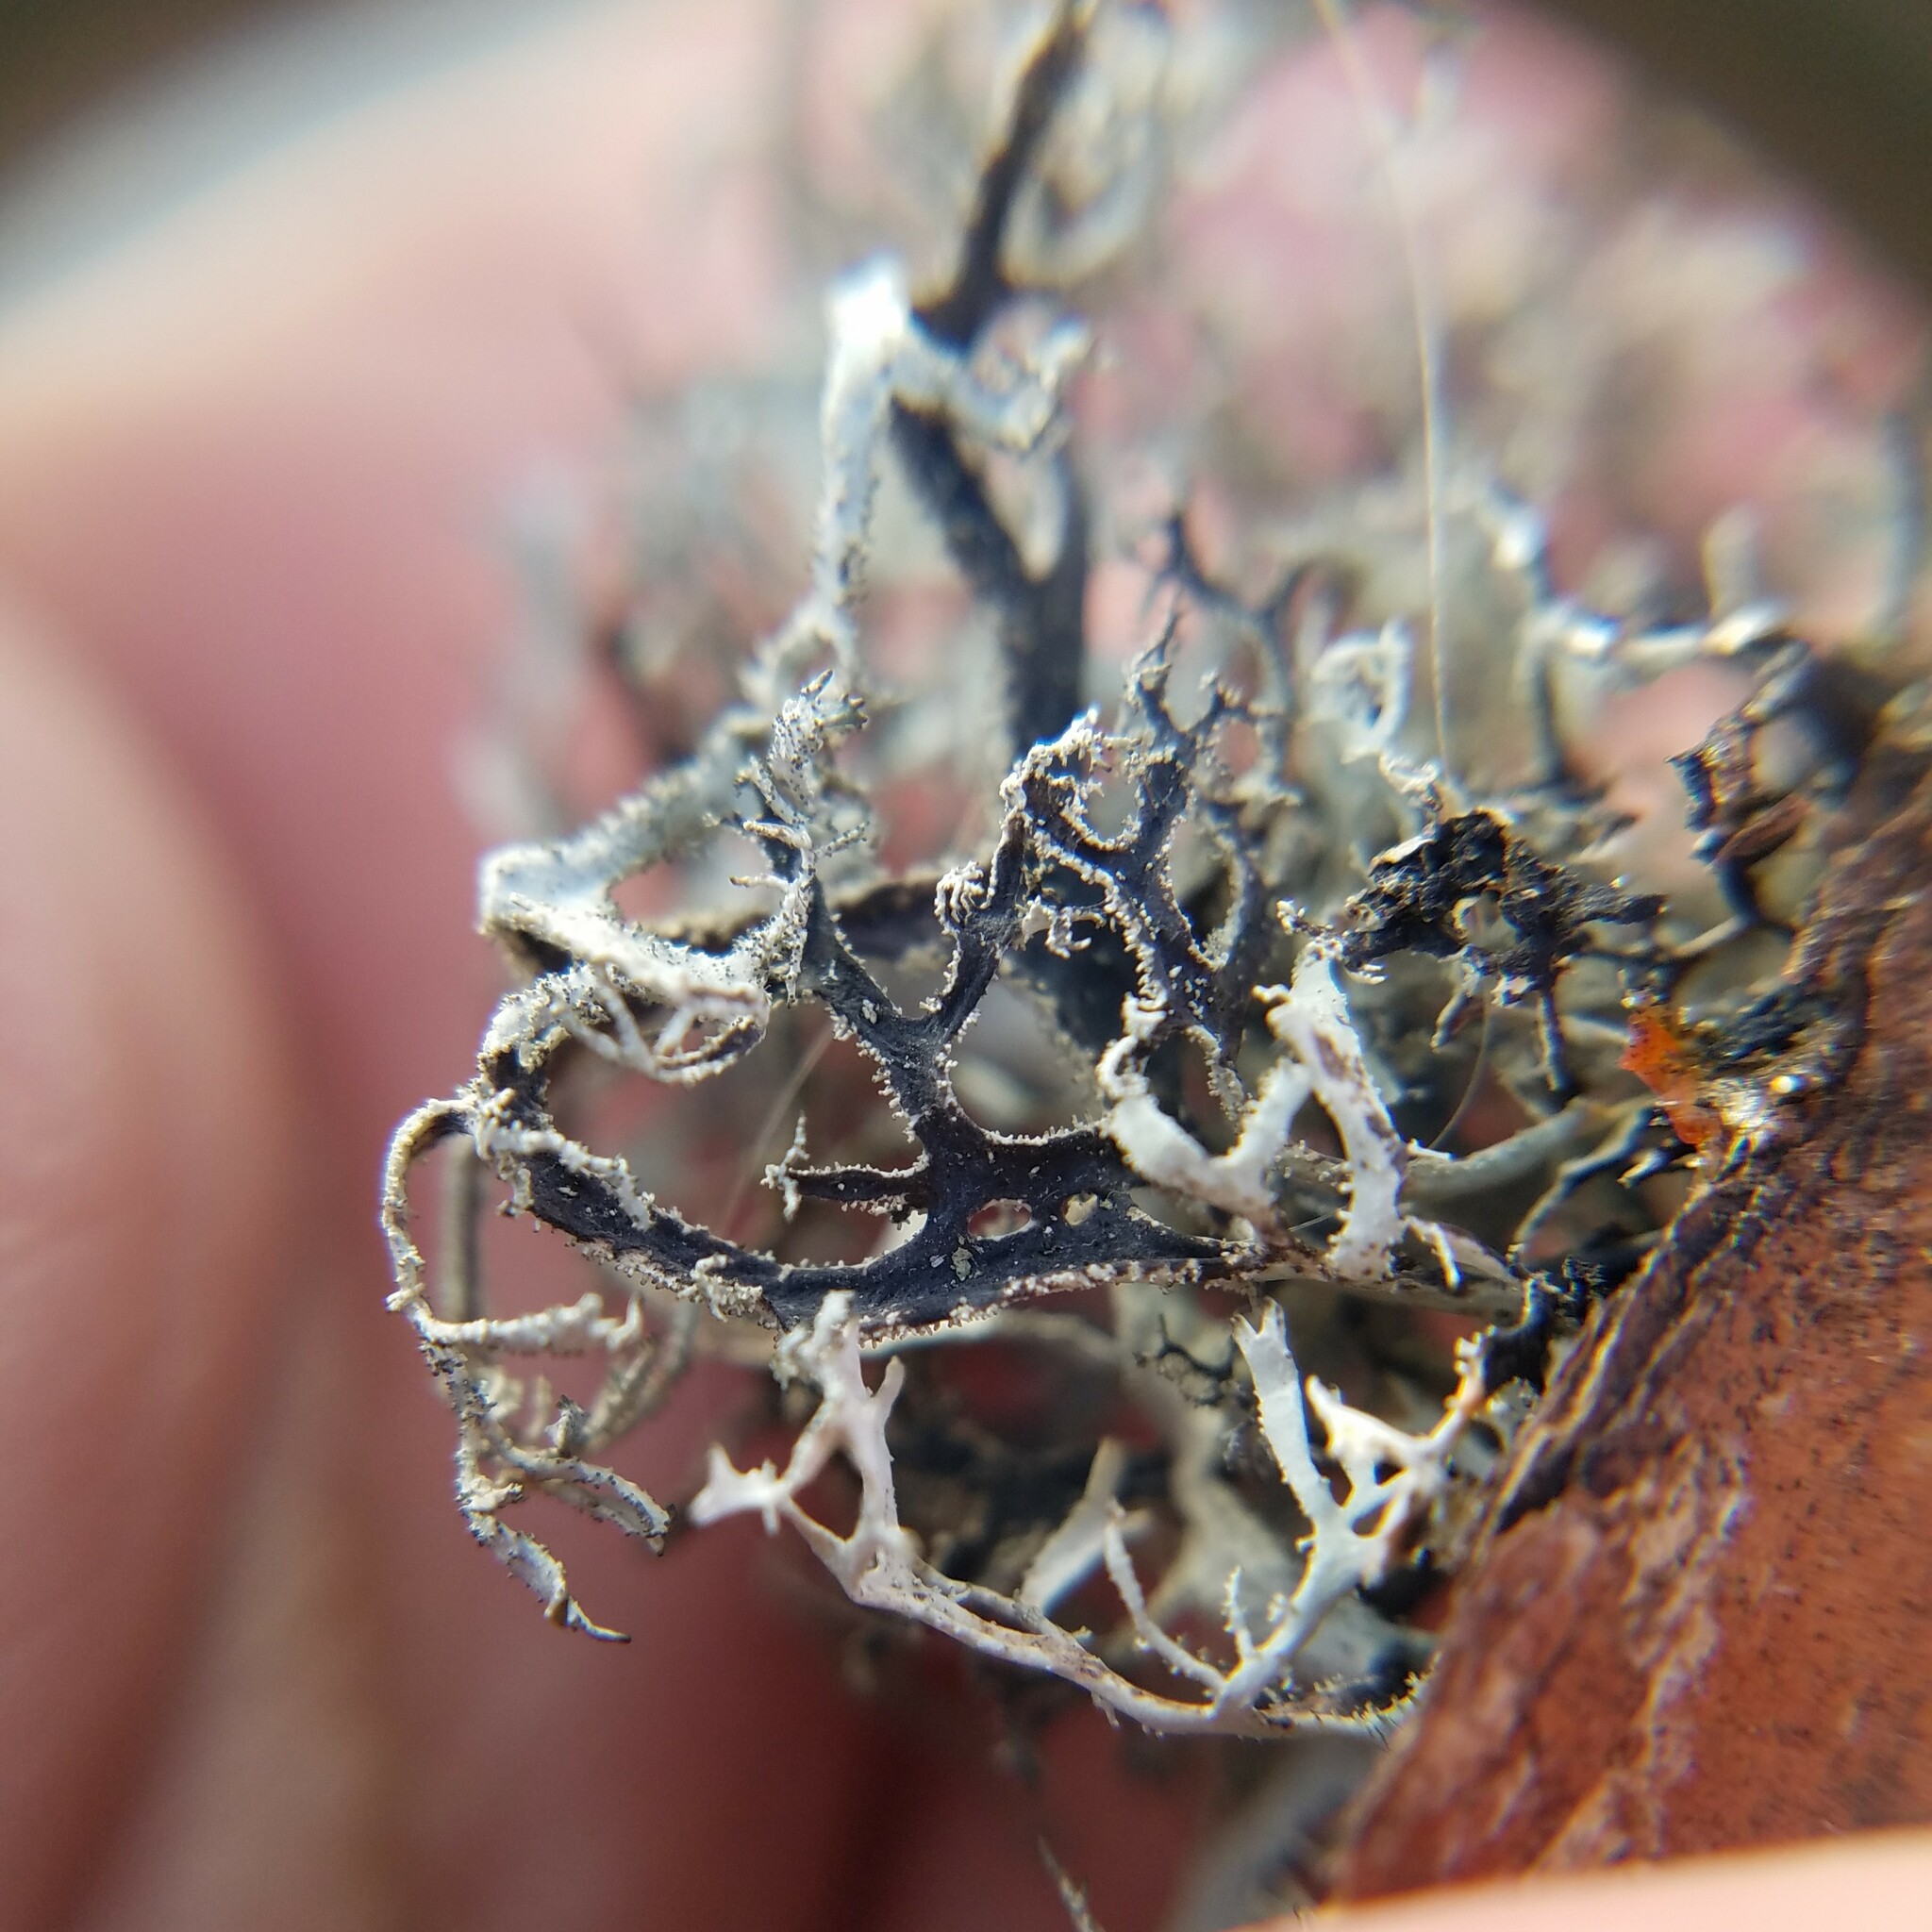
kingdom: Fungi
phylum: Ascomycota
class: Lecanoromycetes
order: Lecanorales
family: Parmeliaceae
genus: Pseudevernia
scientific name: Pseudevernia consocians
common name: Common antler lichen
